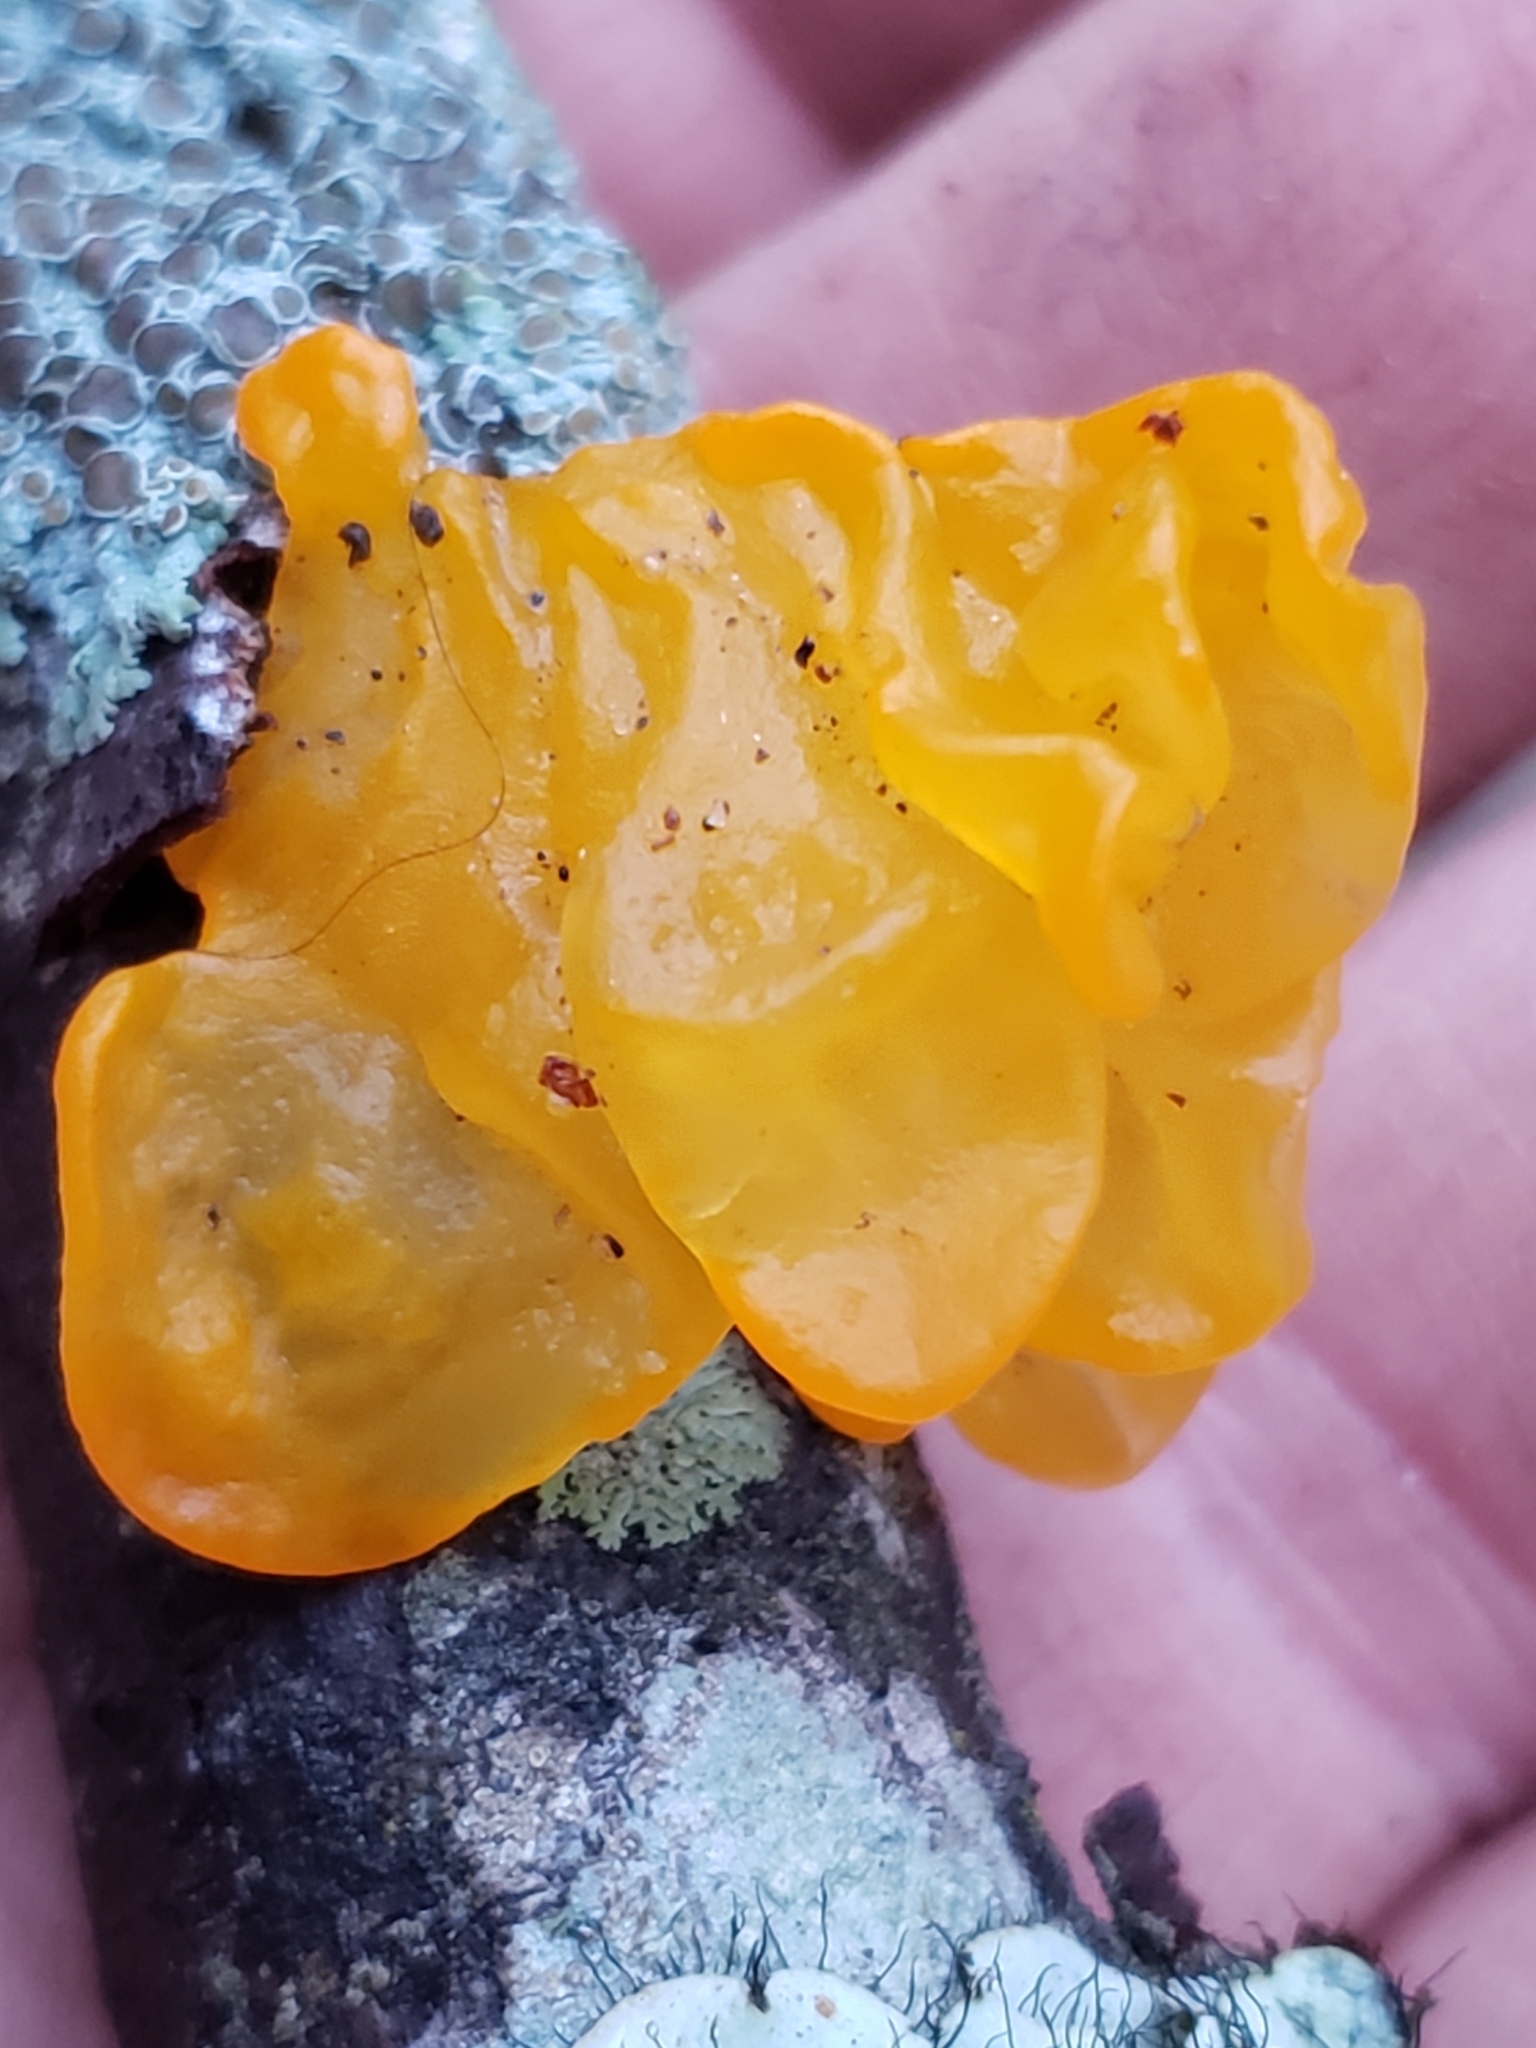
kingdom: Fungi
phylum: Basidiomycota
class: Tremellomycetes
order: Tremellales
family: Tremellaceae
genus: Tremella
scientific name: Tremella mesenterica
